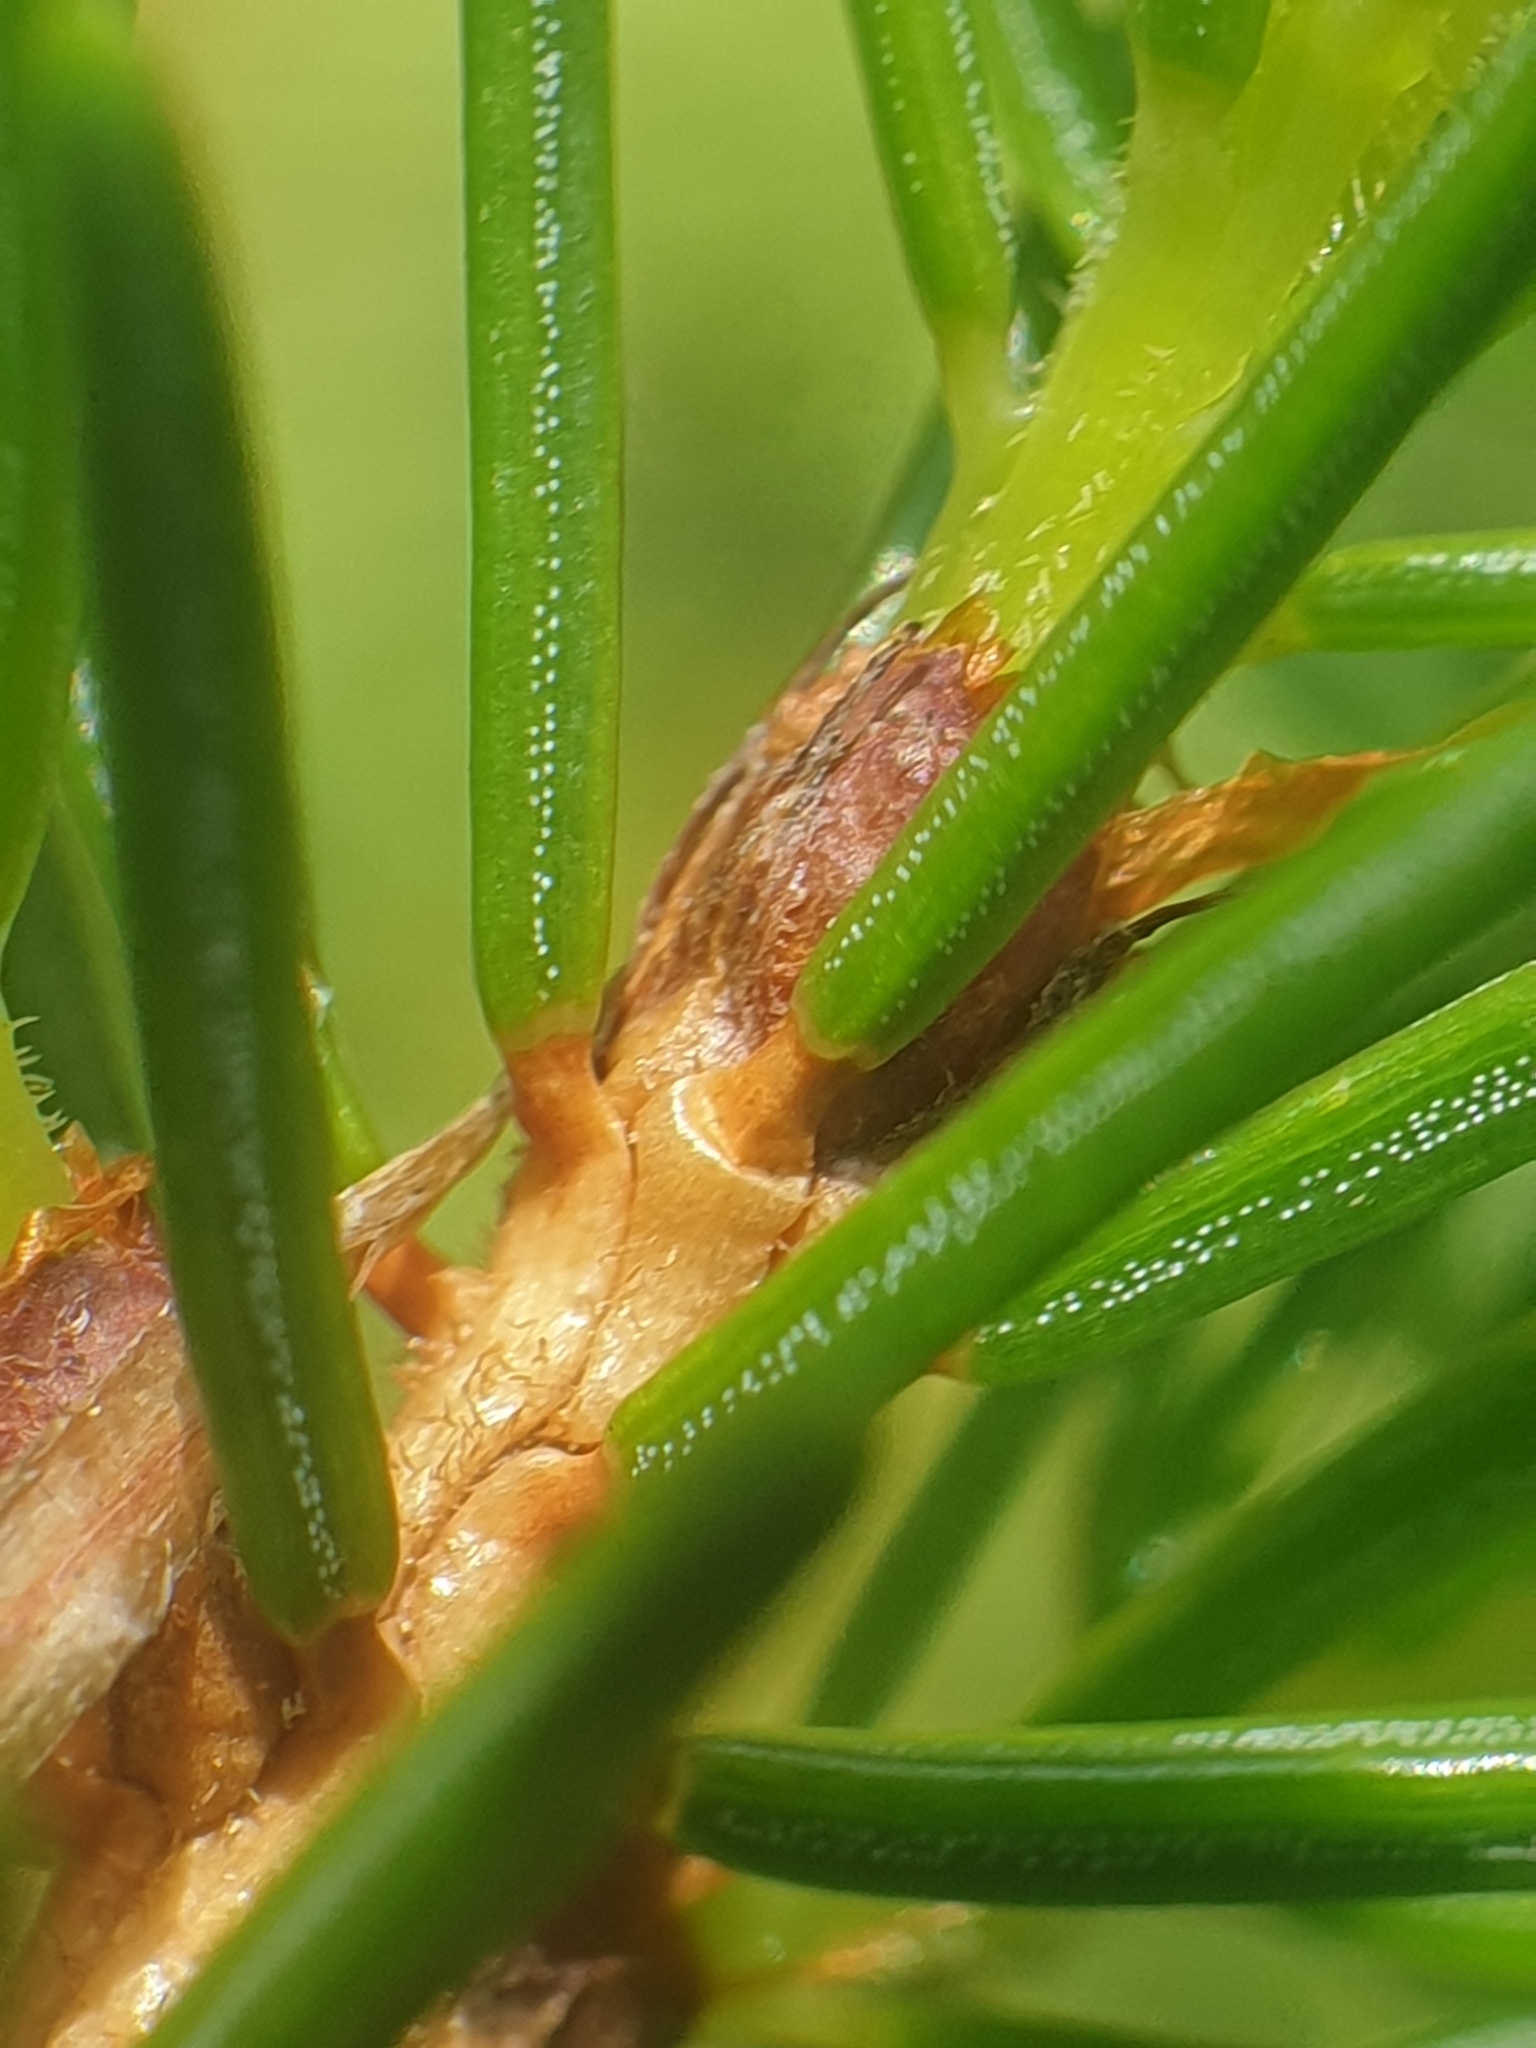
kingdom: Plantae
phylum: Tracheophyta
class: Pinopsida
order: Pinales
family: Pinaceae
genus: Picea
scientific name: Picea rubens
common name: Red spruce
